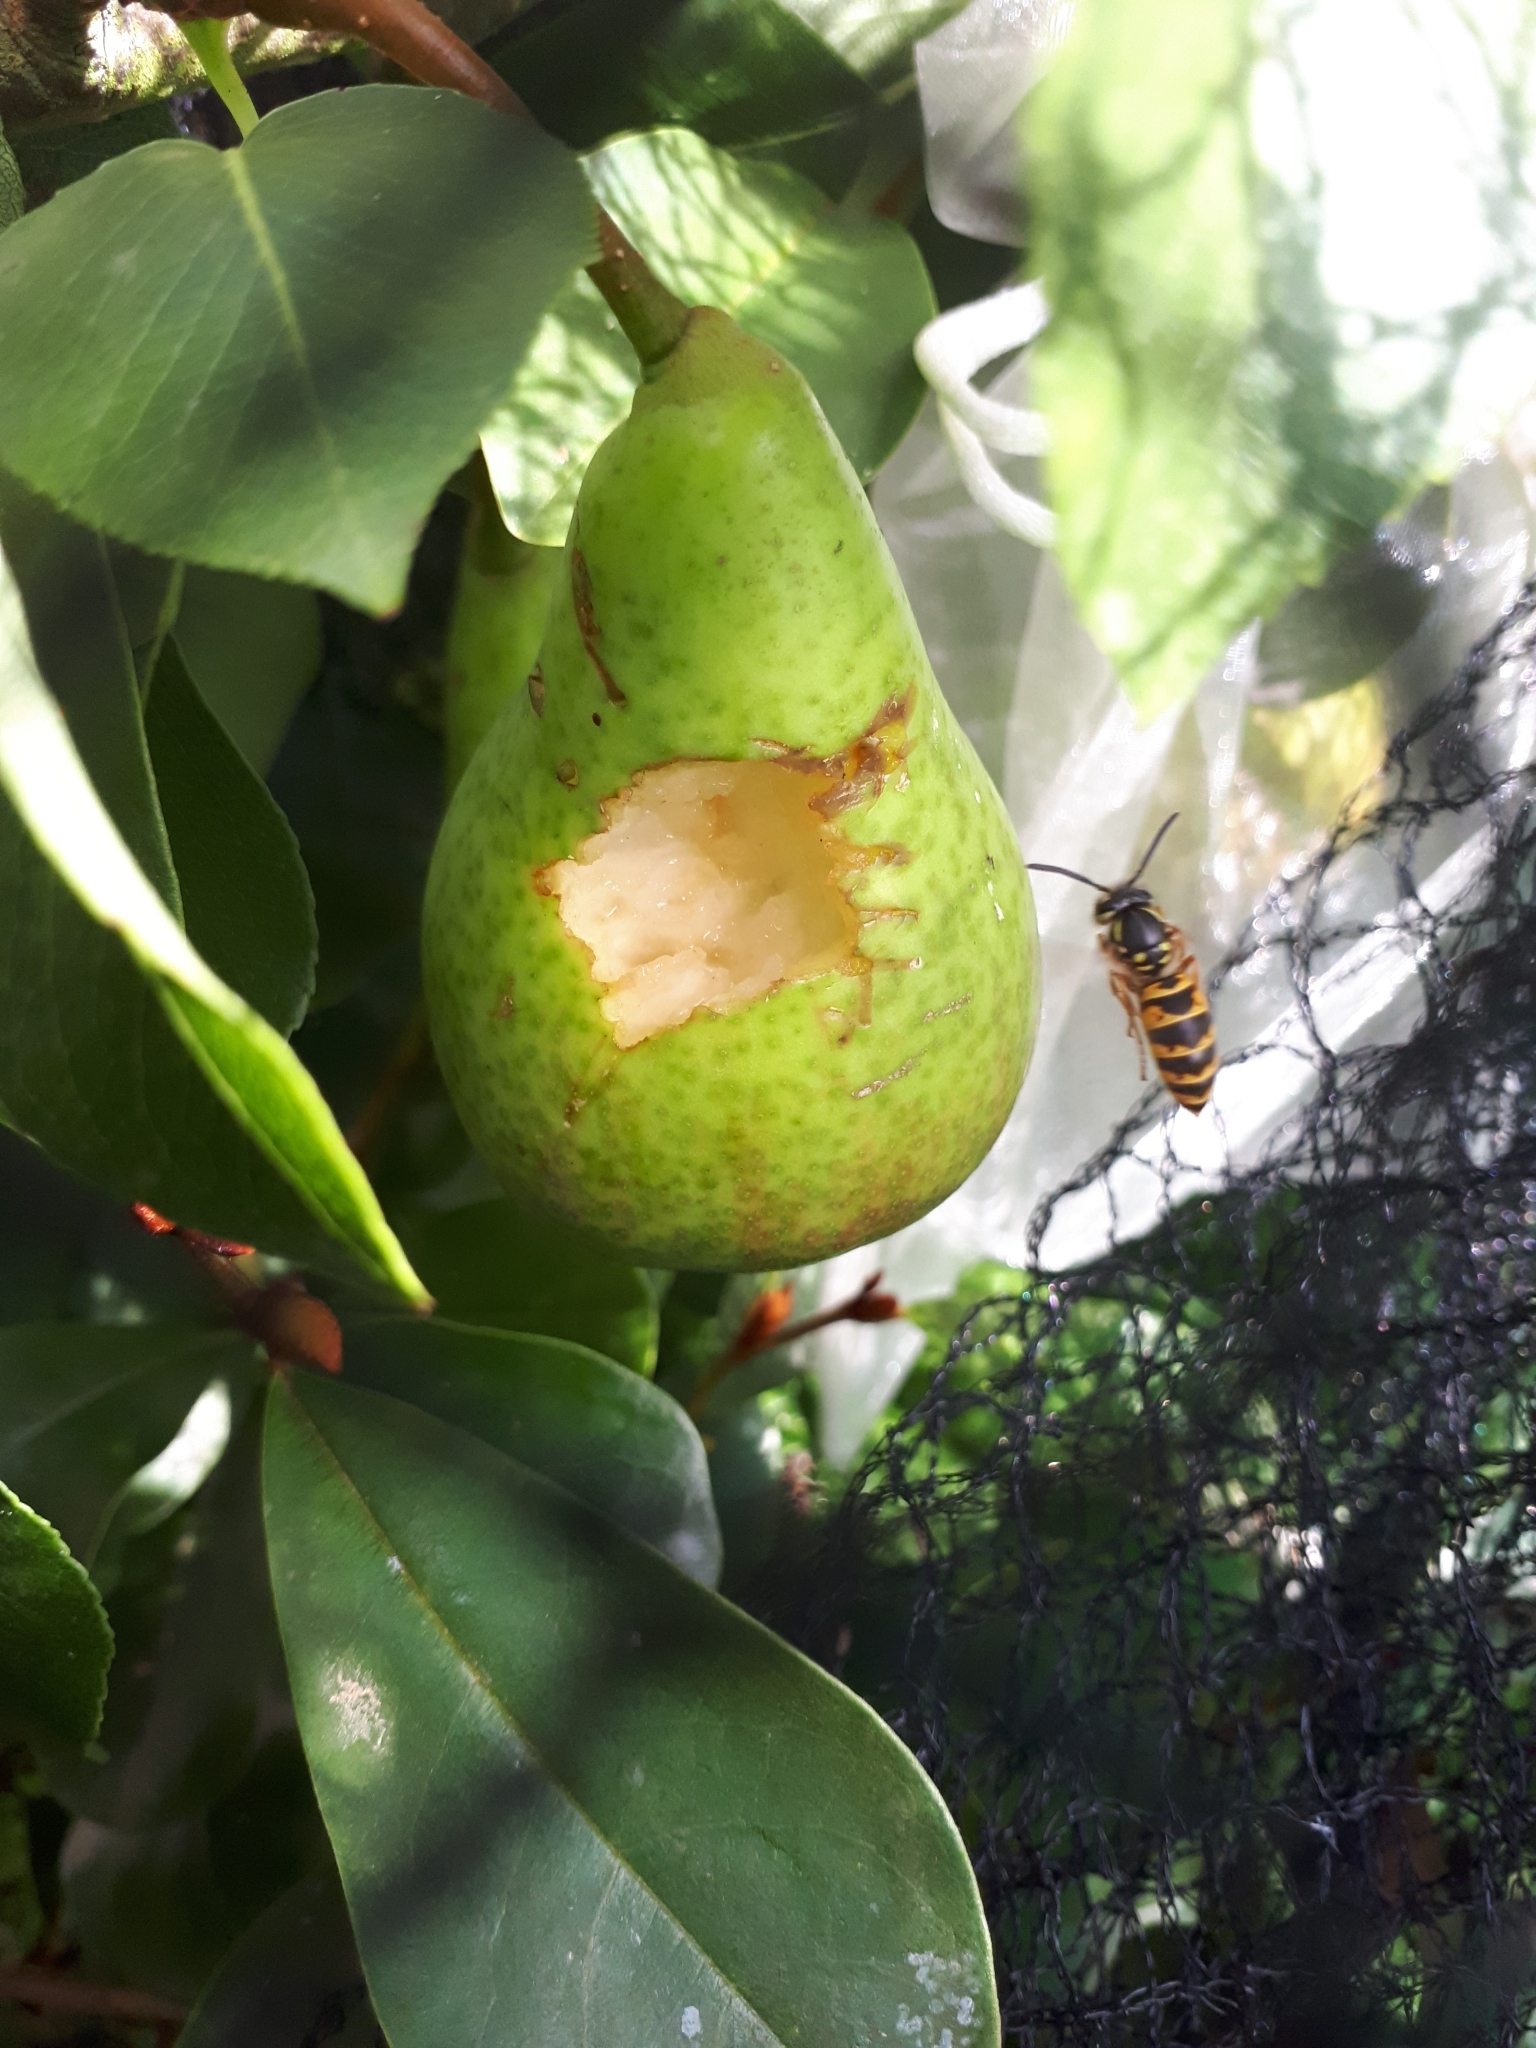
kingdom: Animalia
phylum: Arthropoda
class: Insecta
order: Hymenoptera
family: Vespidae
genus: Vespula
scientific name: Vespula vulgaris
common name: Common wasp
